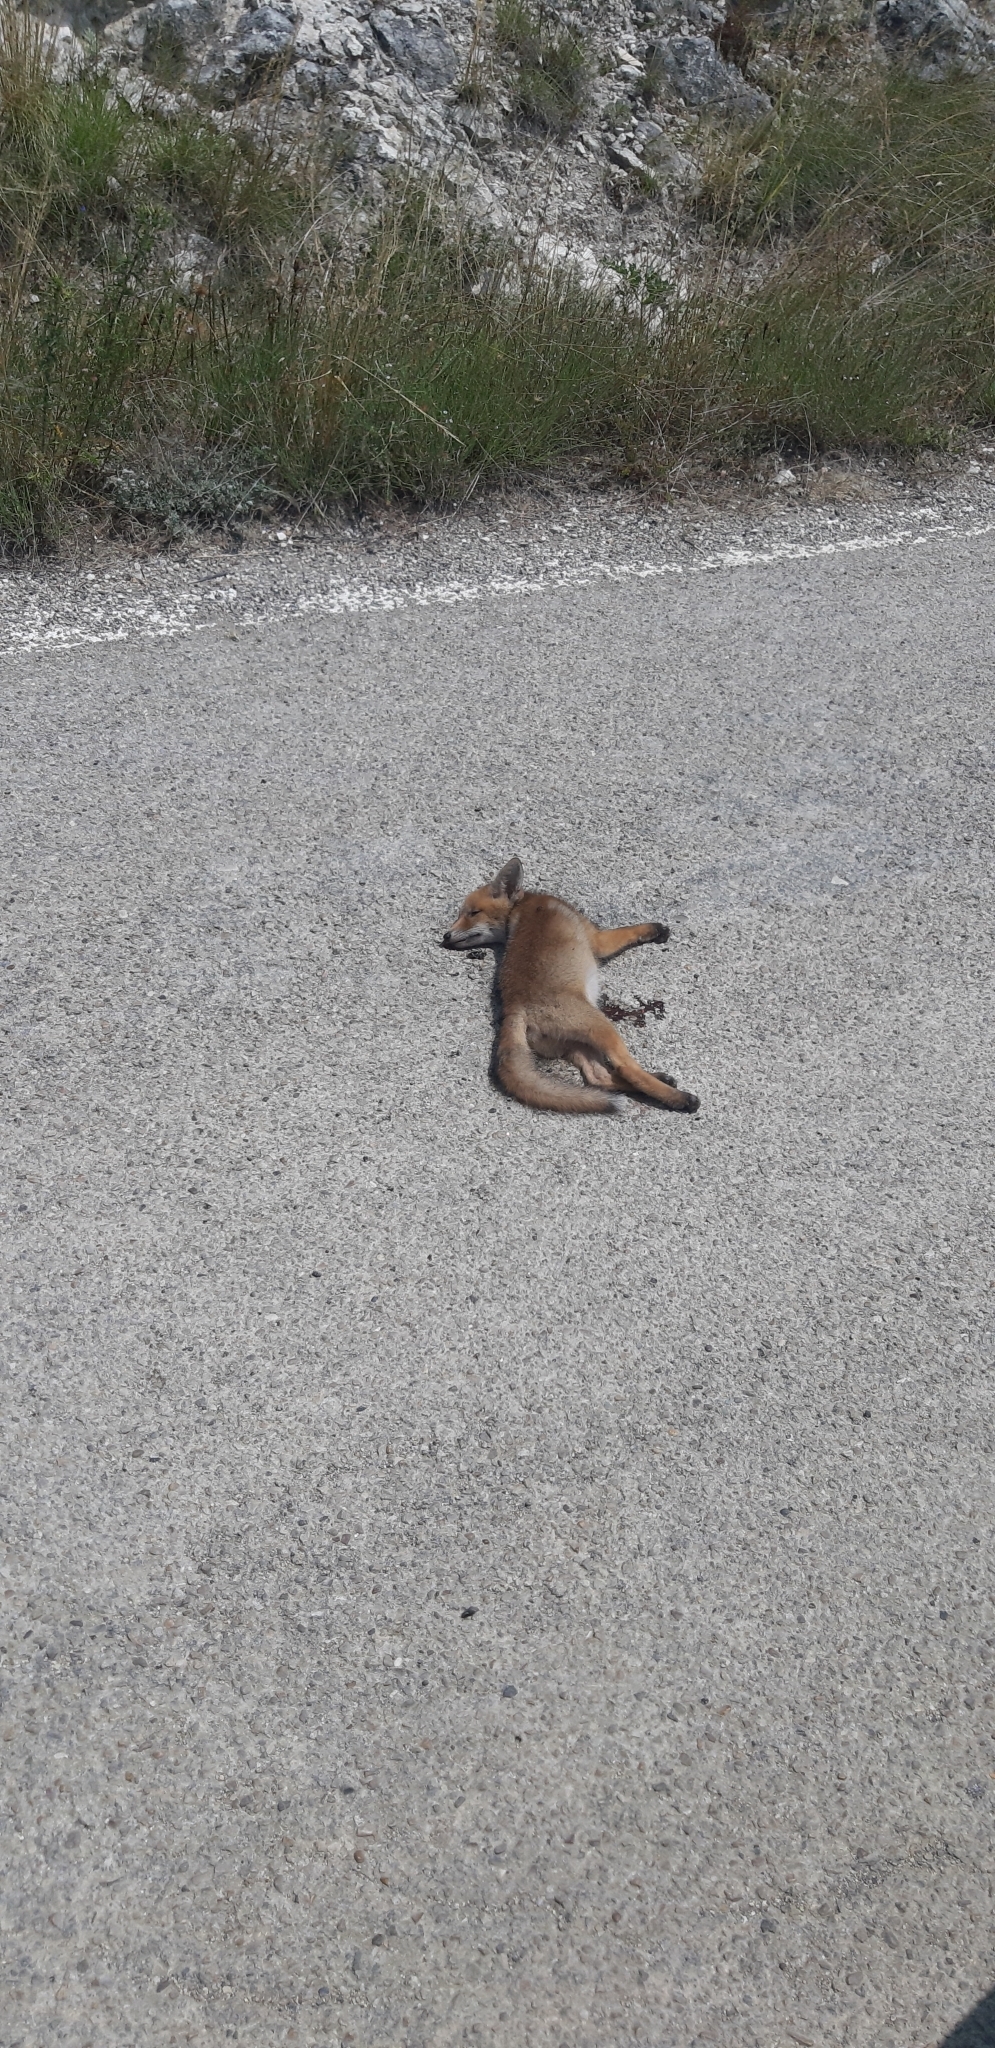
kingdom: Animalia
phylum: Chordata
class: Mammalia
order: Carnivora
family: Canidae
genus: Vulpes
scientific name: Vulpes vulpes
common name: Red fox
